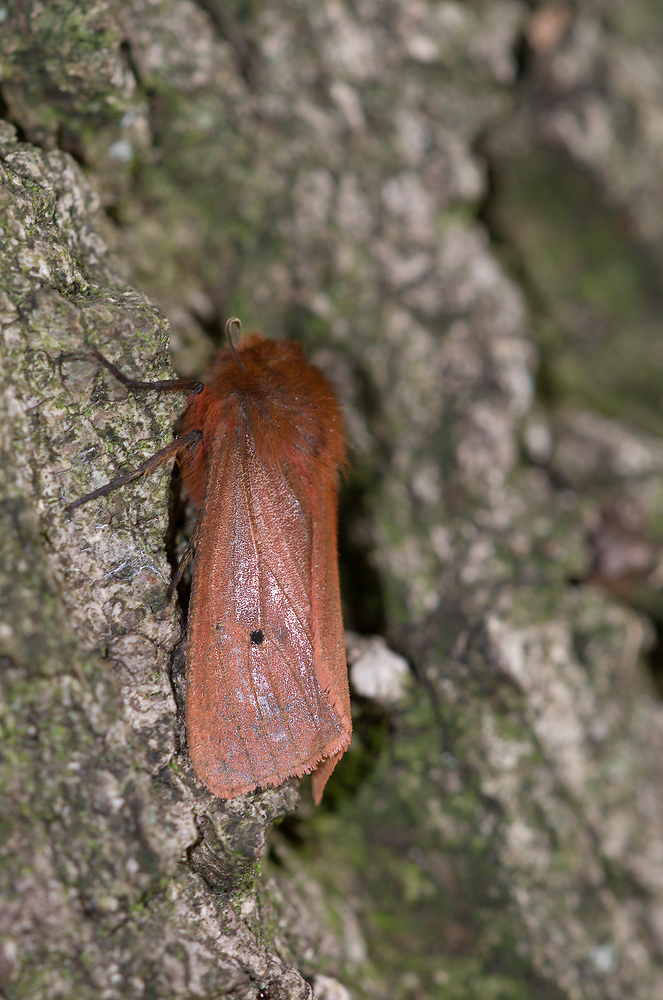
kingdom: Animalia
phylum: Arthropoda
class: Insecta
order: Lepidoptera
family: Erebidae
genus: Phragmatobia
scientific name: Phragmatobia fuliginosa
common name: Ruby tiger
